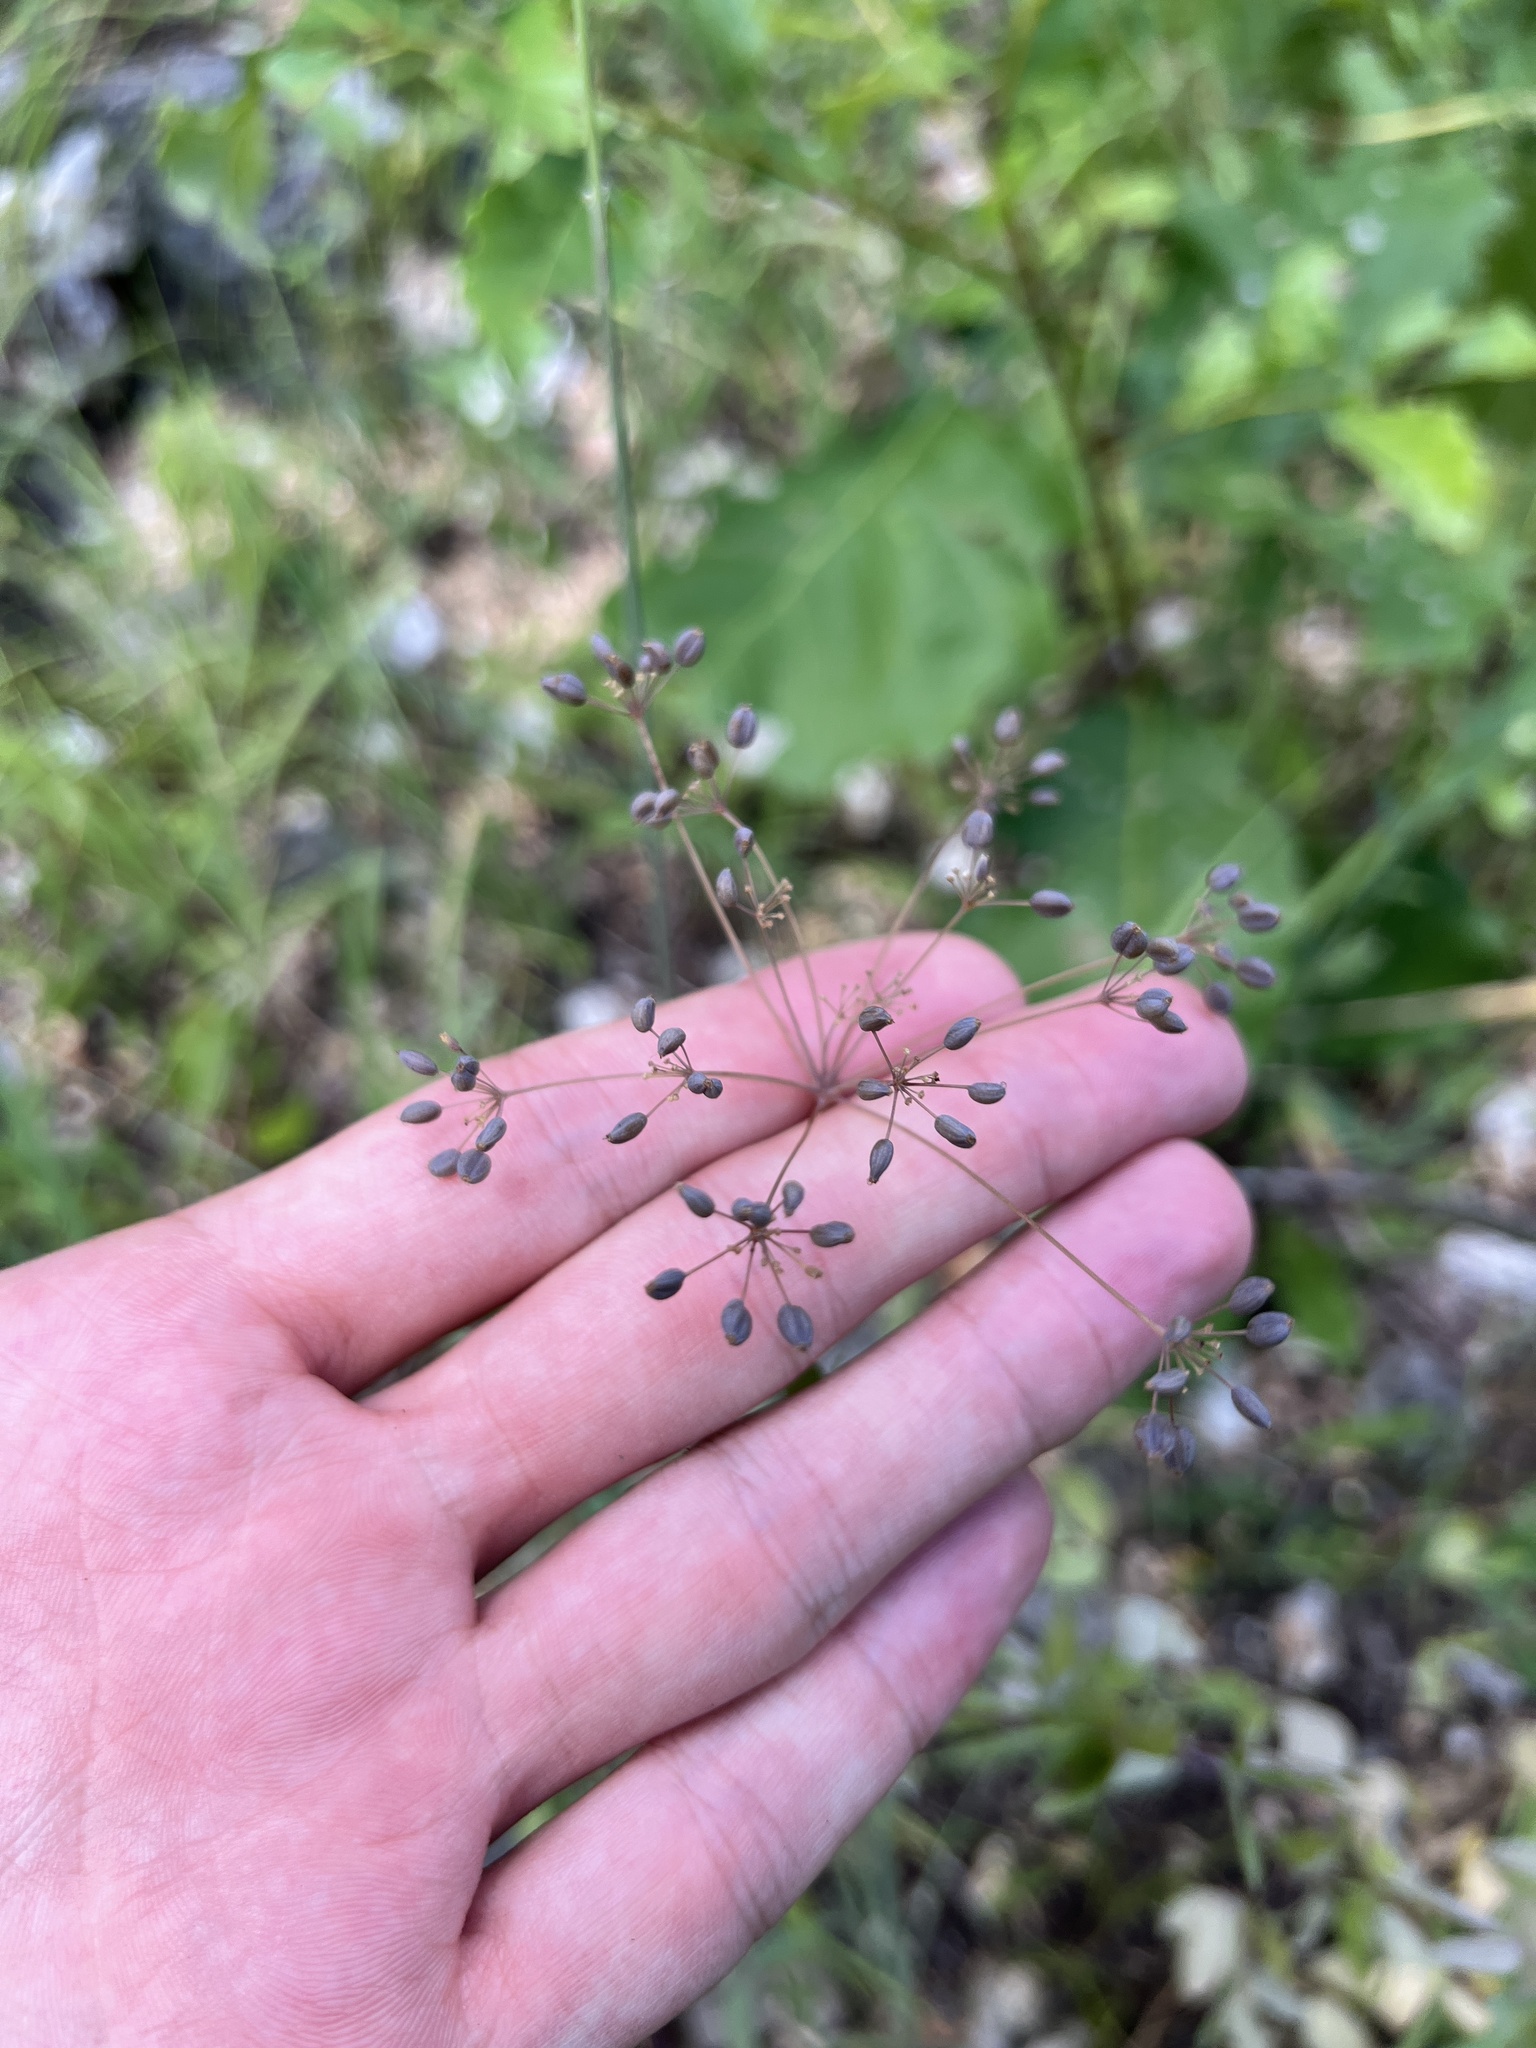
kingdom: Plantae
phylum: Tracheophyta
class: Magnoliopsida
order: Apiales
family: Apiaceae
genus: Taenidia
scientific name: Taenidia integerrima
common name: Golden alexander
